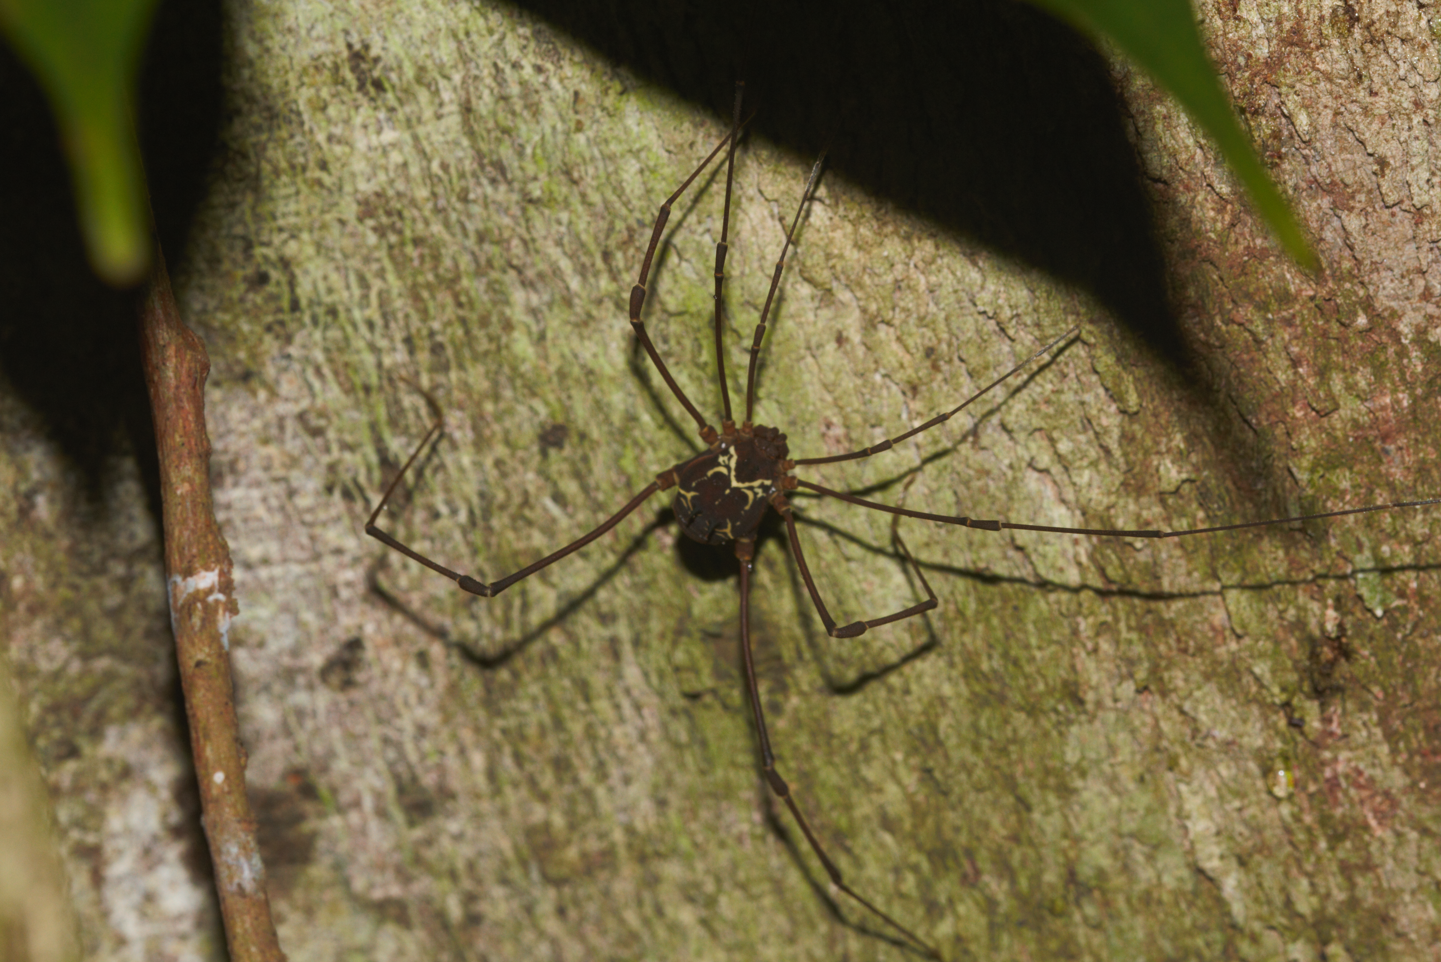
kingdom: Animalia
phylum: Arthropoda
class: Arachnida
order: Opiliones
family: Cosmetidae
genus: Paecilaema
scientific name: Paecilaema curvipes
